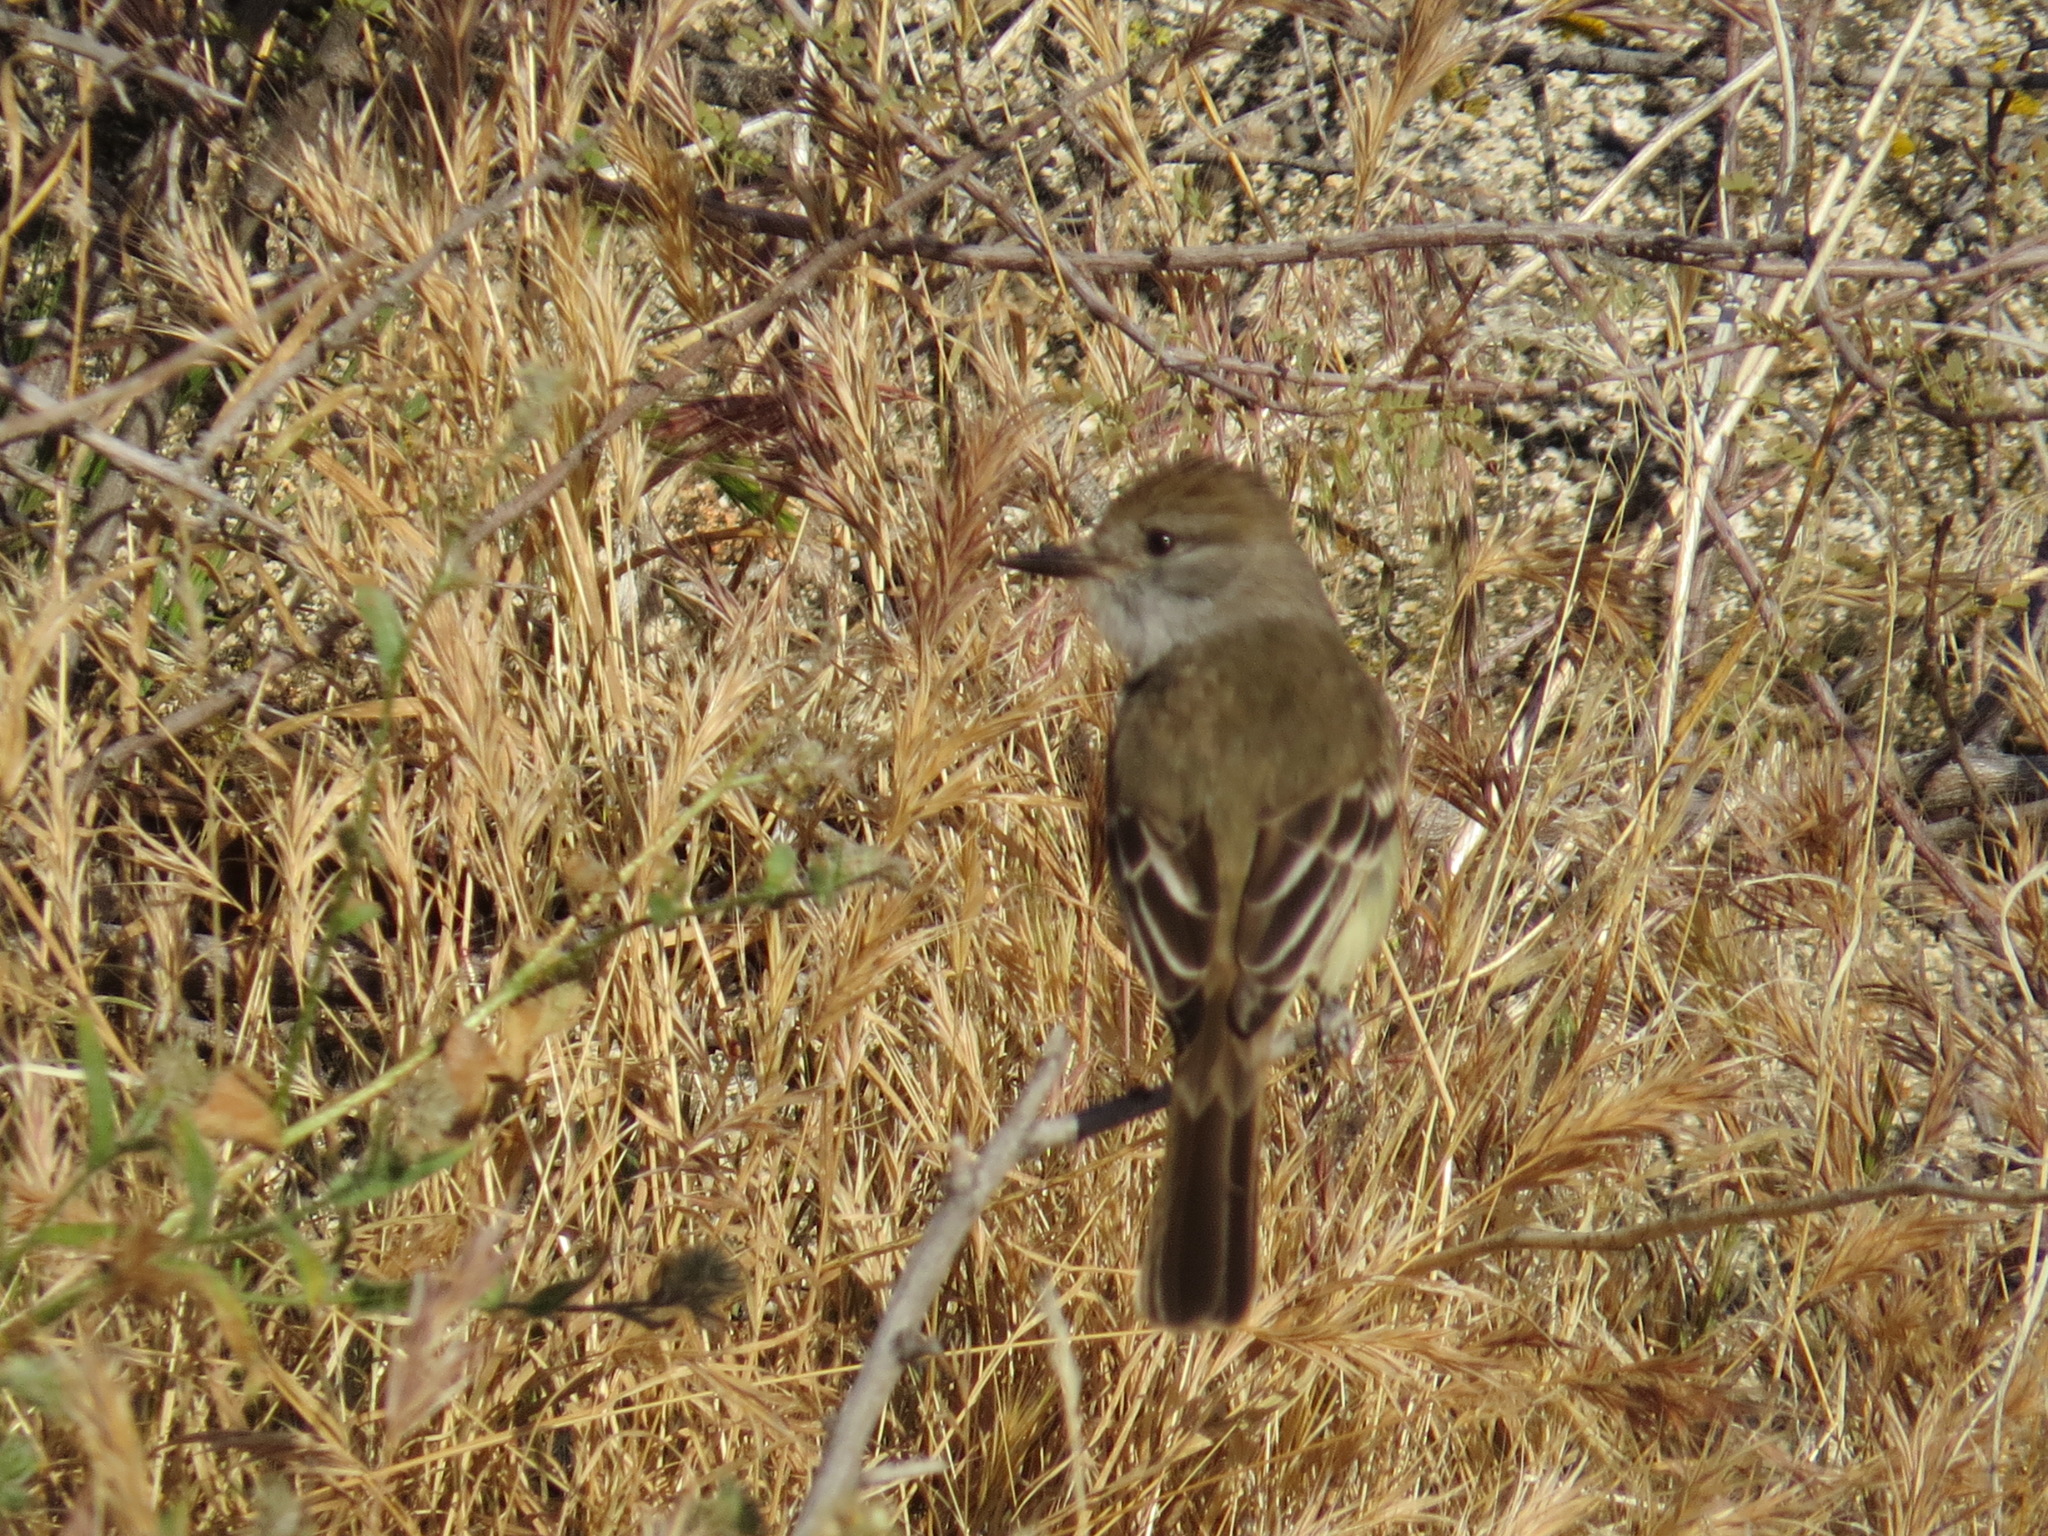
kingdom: Animalia
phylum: Chordata
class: Aves
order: Passeriformes
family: Tyrannidae
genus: Myiarchus
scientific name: Myiarchus cinerascens
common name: Ash-throated flycatcher
